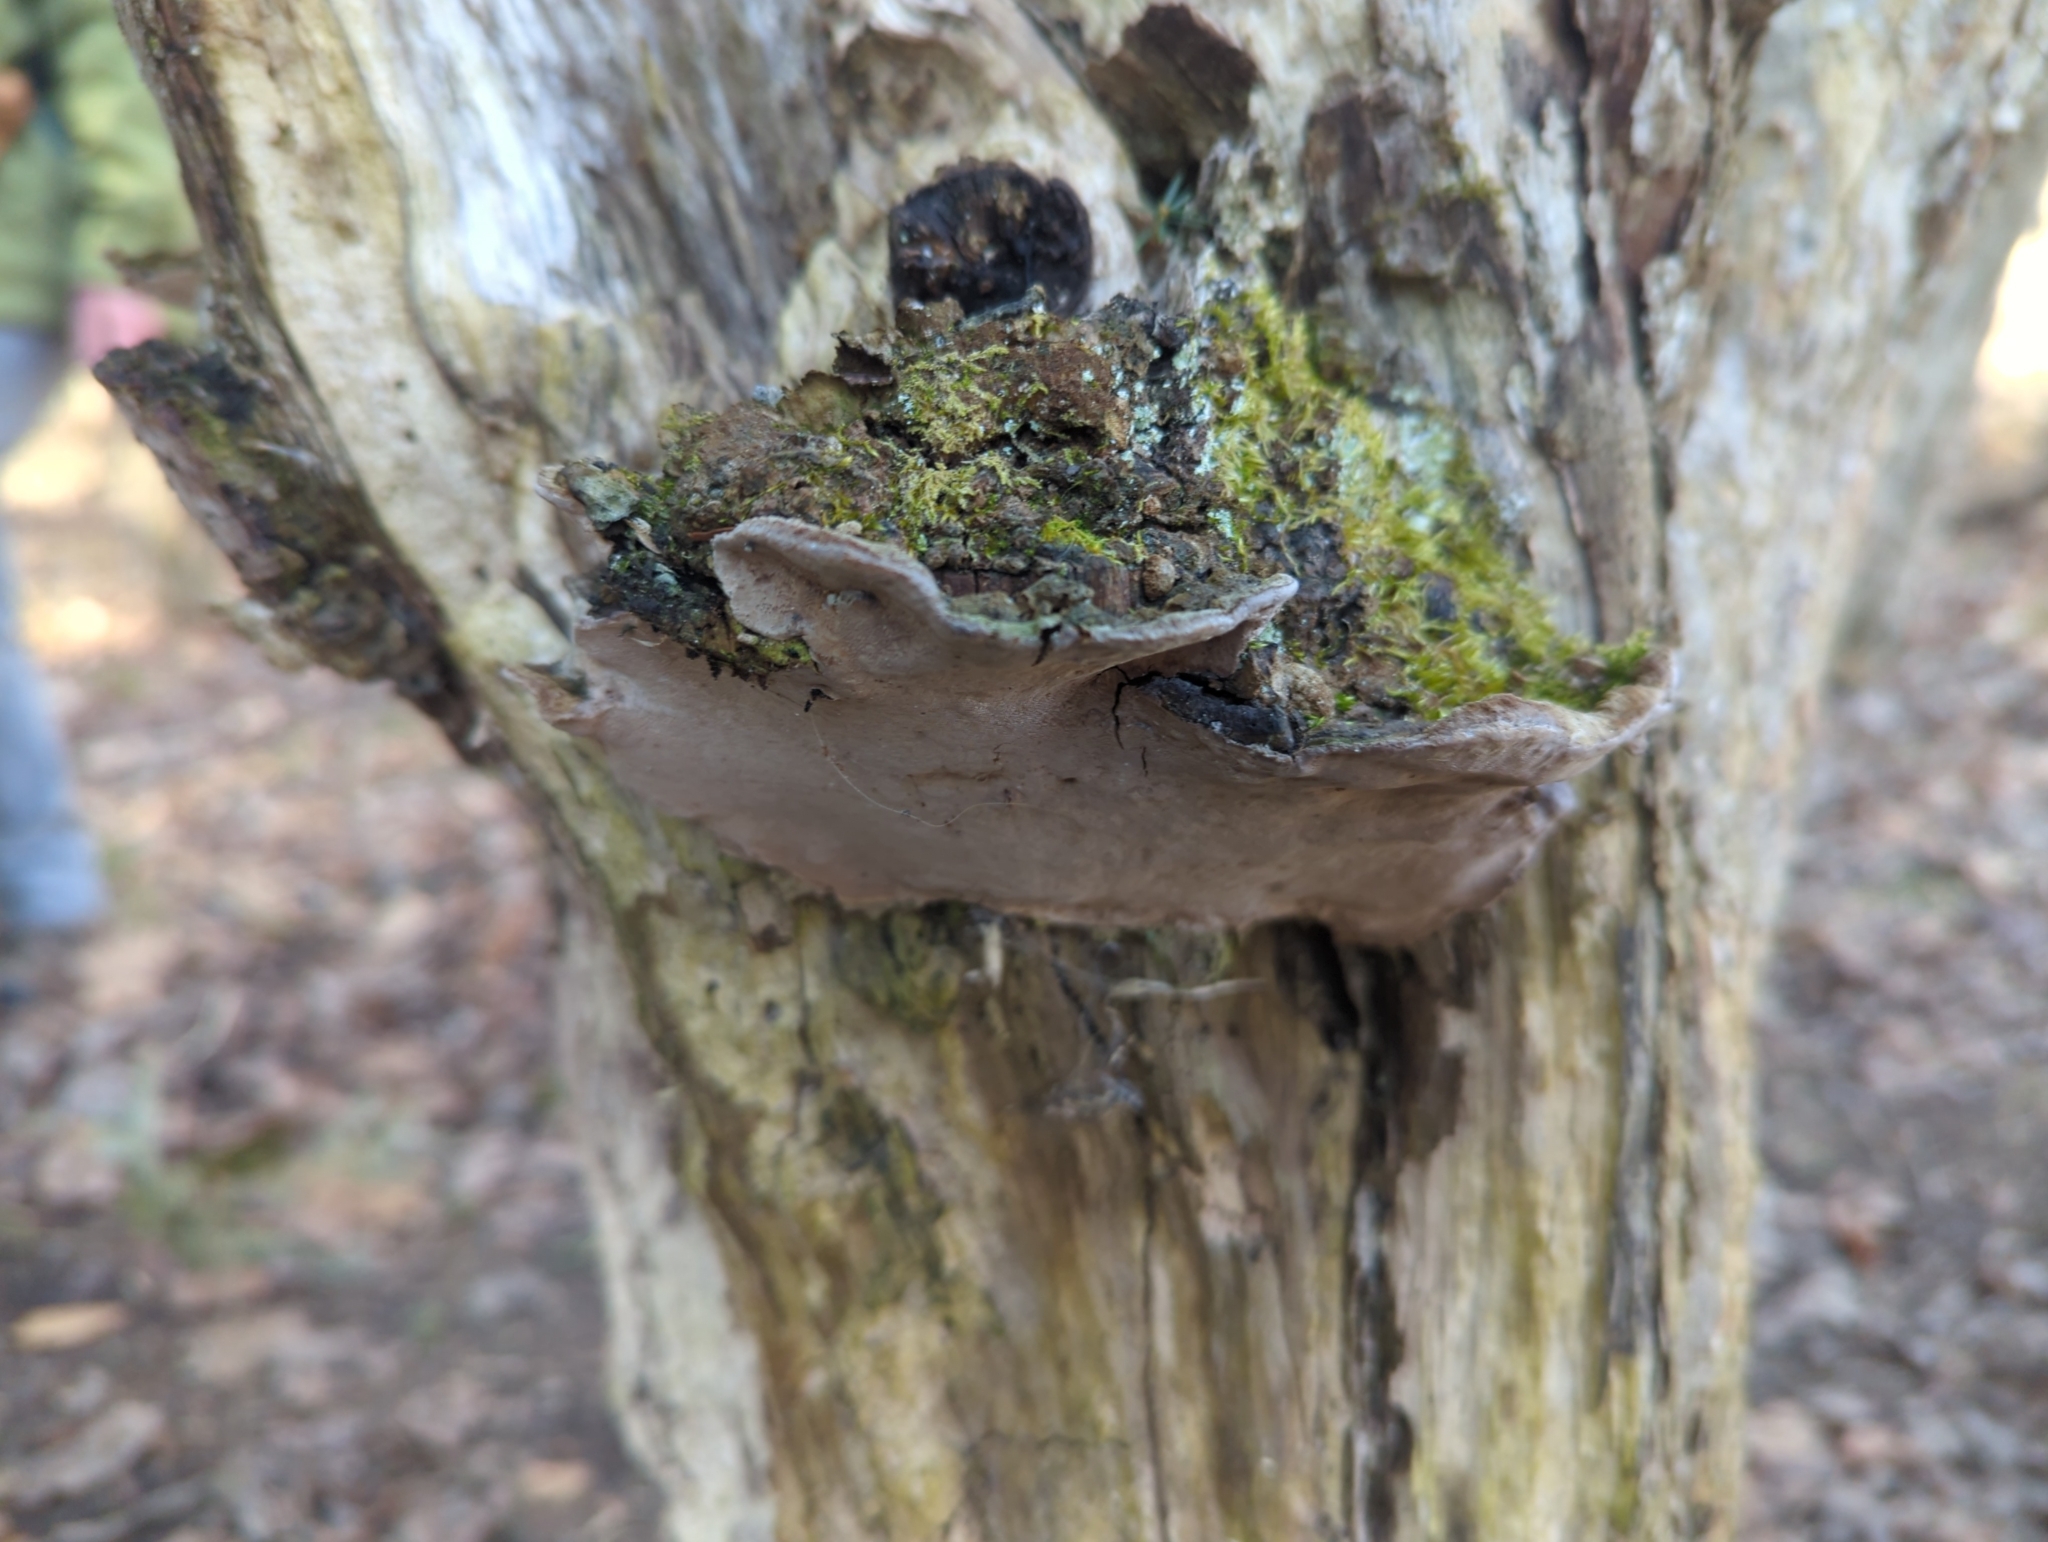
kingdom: Fungi
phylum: Basidiomycota
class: Agaricomycetes
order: Hymenochaetales
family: Hymenochaetaceae
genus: Phellinopsis
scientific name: Phellinopsis conchata
